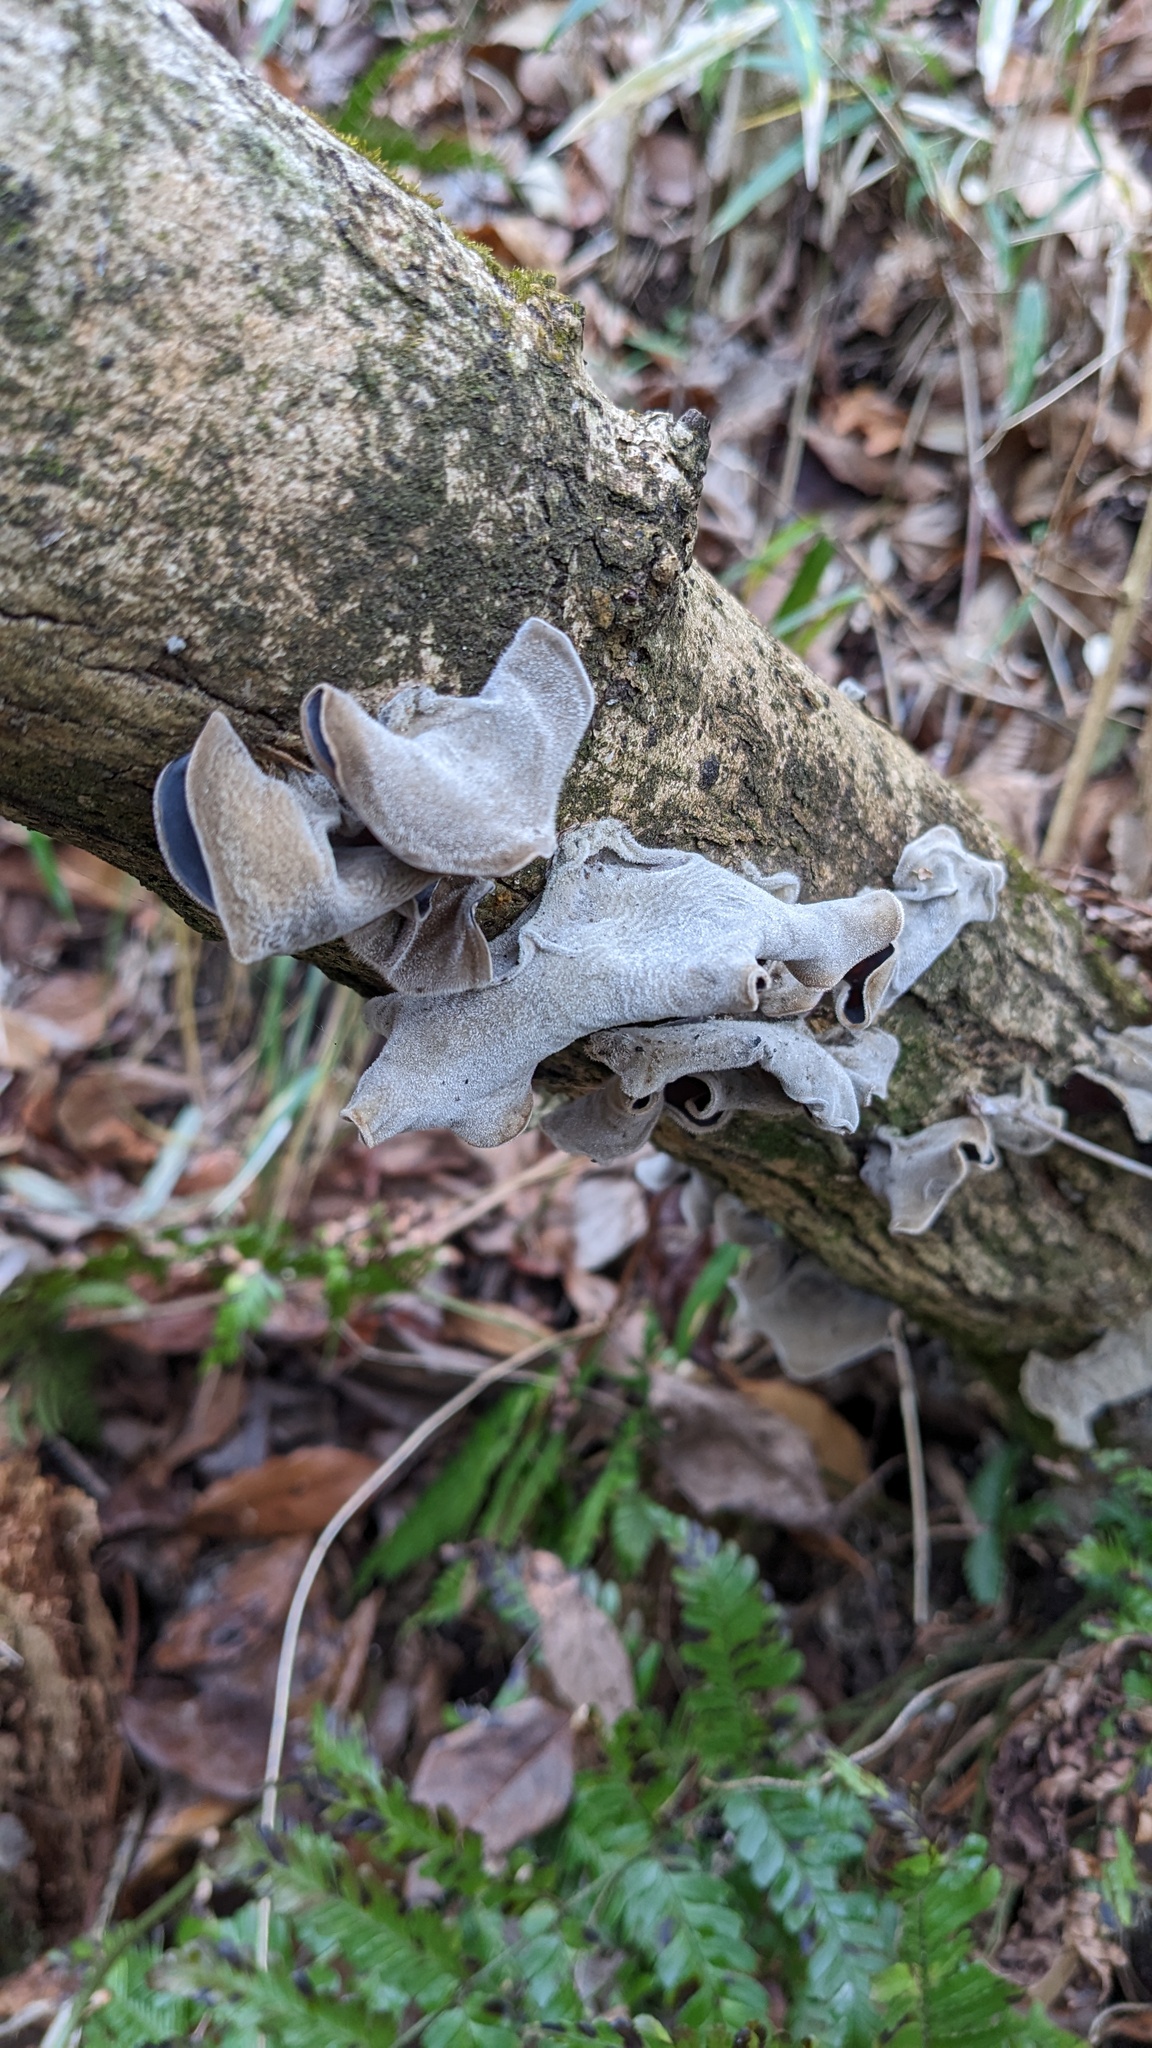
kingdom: Fungi
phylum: Basidiomycota
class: Agaricomycetes
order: Auriculariales
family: Auriculariaceae
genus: Auricularia
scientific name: Auricularia nigricans
